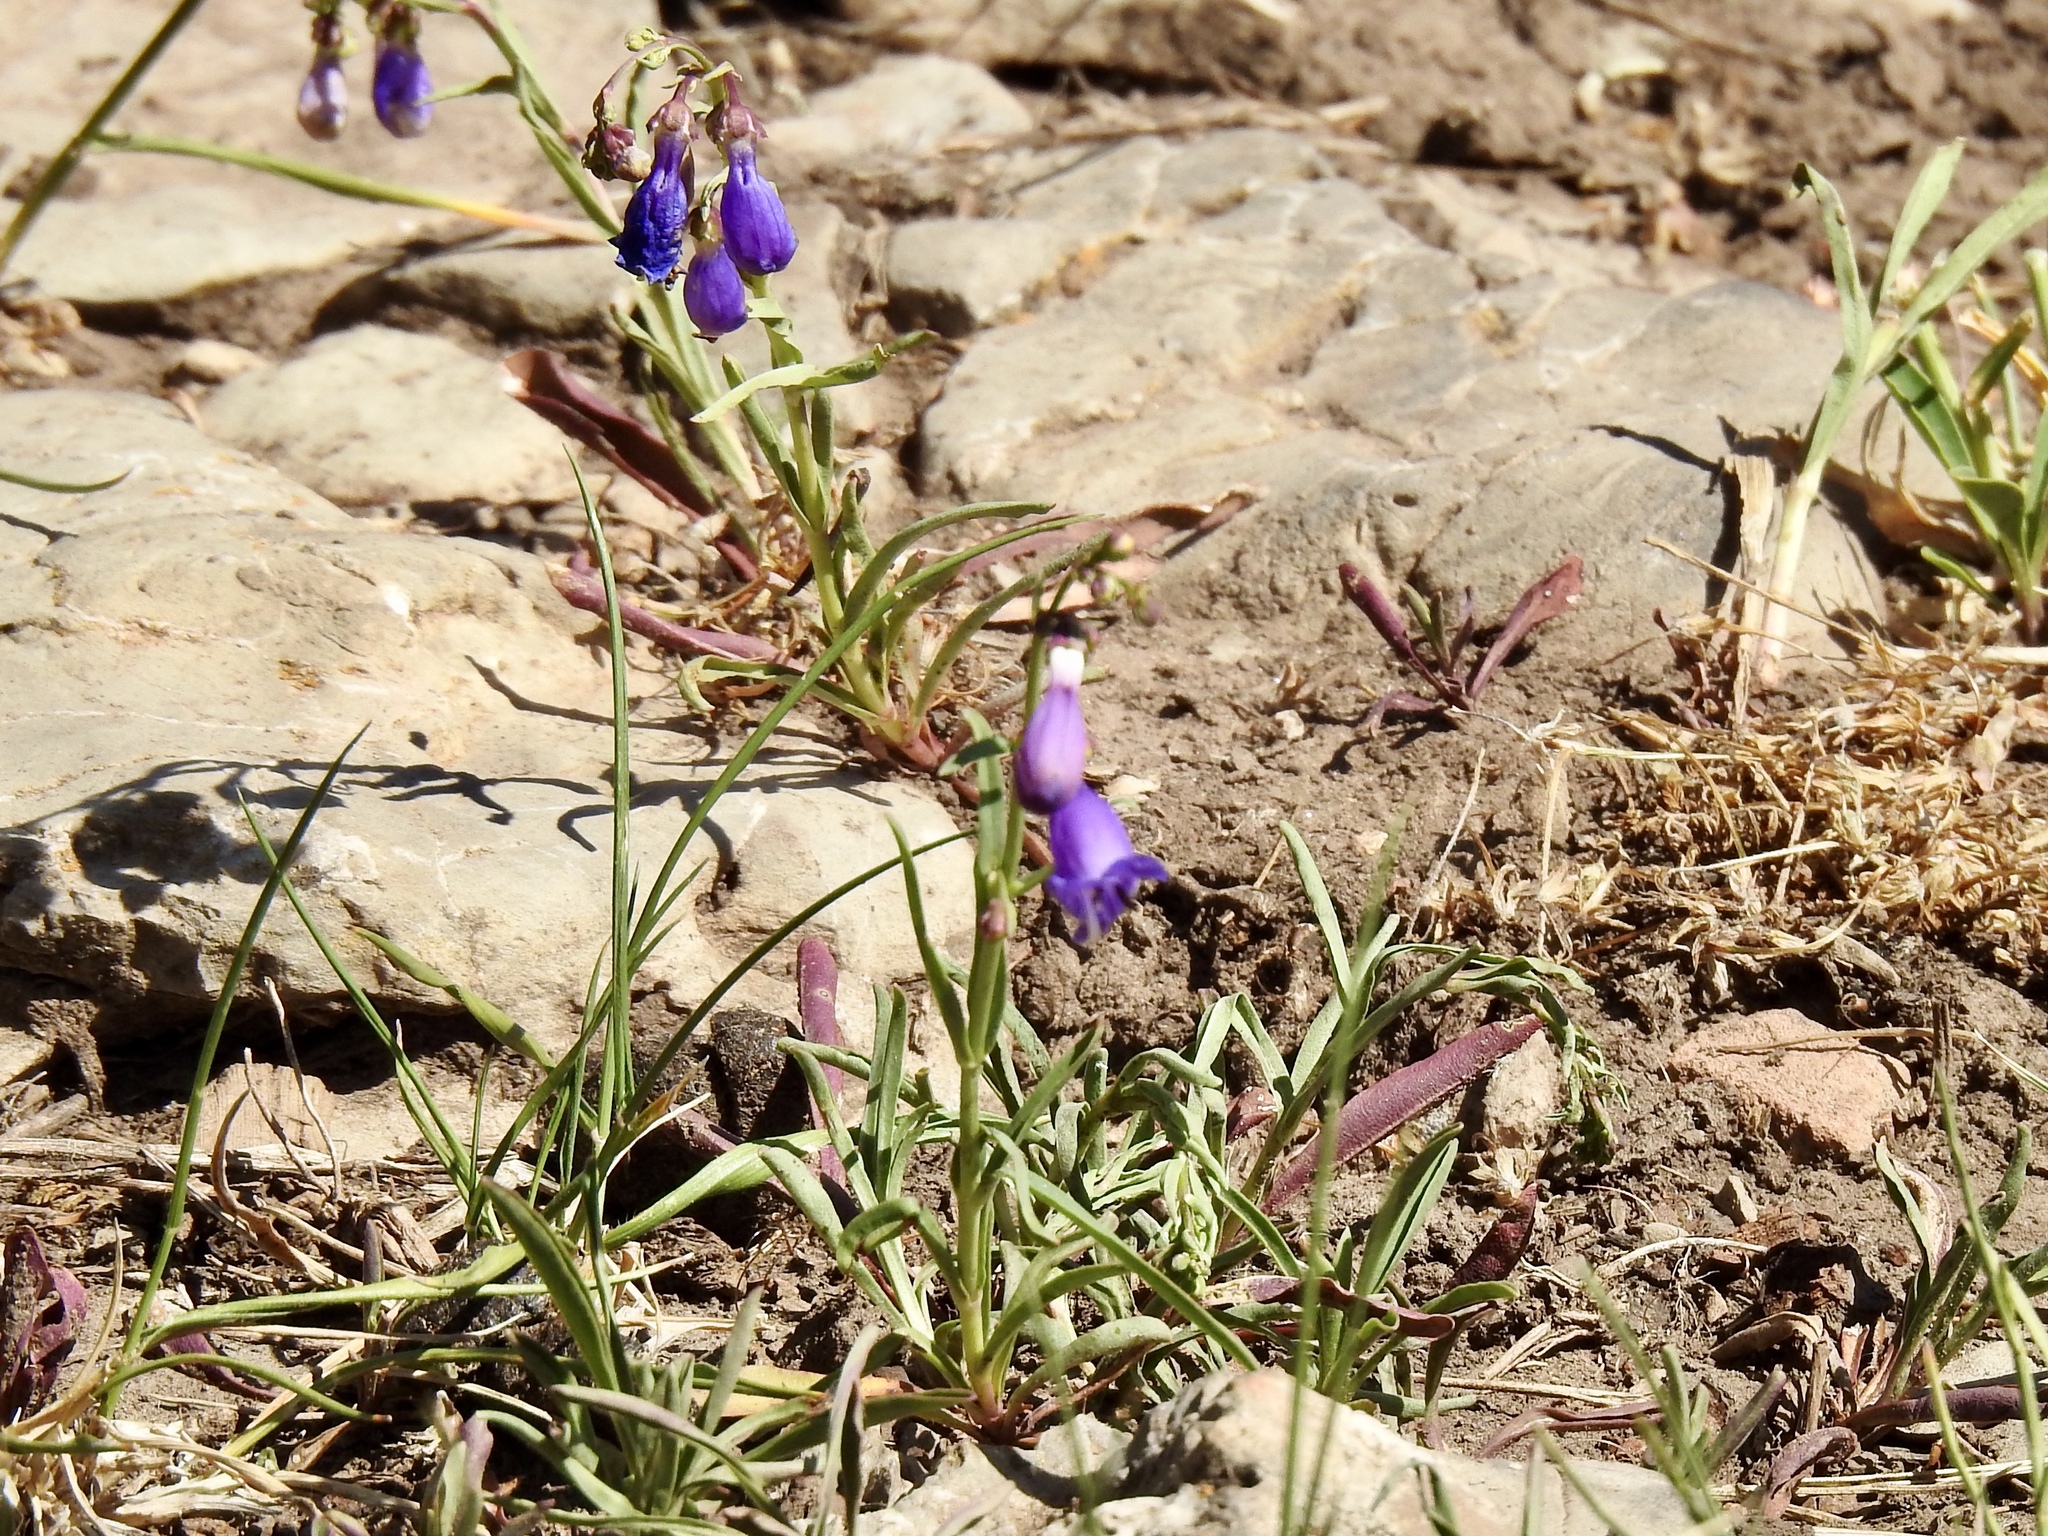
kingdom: Plantae
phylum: Tracheophyta
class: Magnoliopsida
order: Lamiales
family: Plantaginaceae
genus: Penstemon
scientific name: Penstemon neomexicanus
